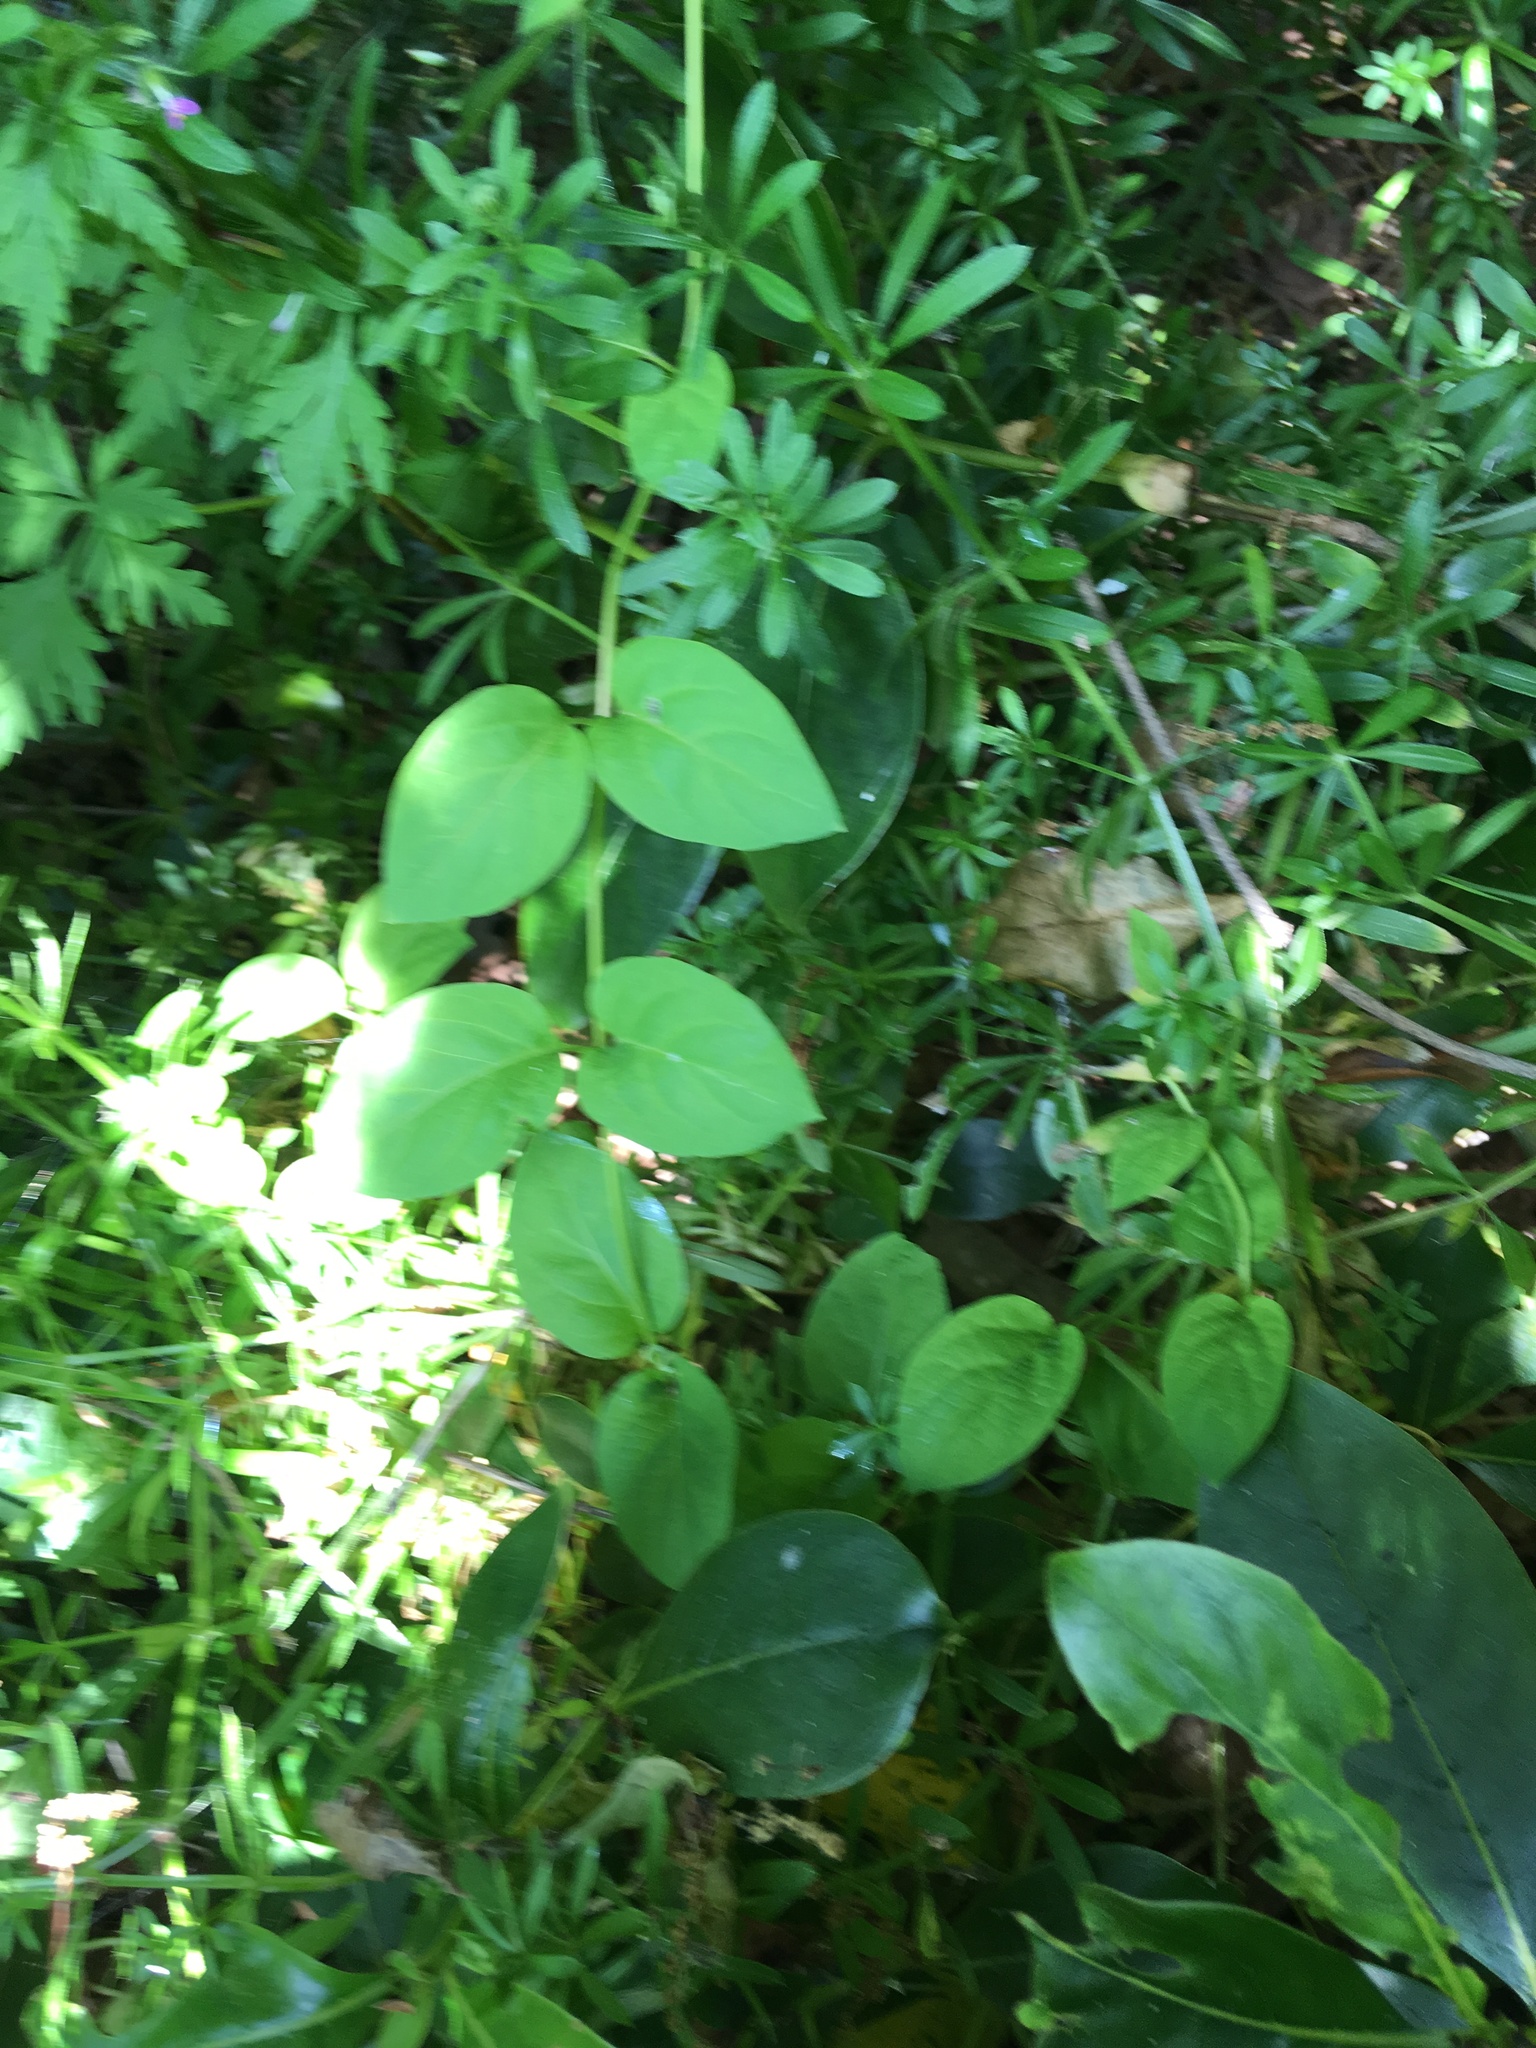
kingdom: Plantae
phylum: Tracheophyta
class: Magnoliopsida
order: Dipsacales
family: Caprifoliaceae
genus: Lonicera
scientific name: Lonicera japonica
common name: Japanese honeysuckle
